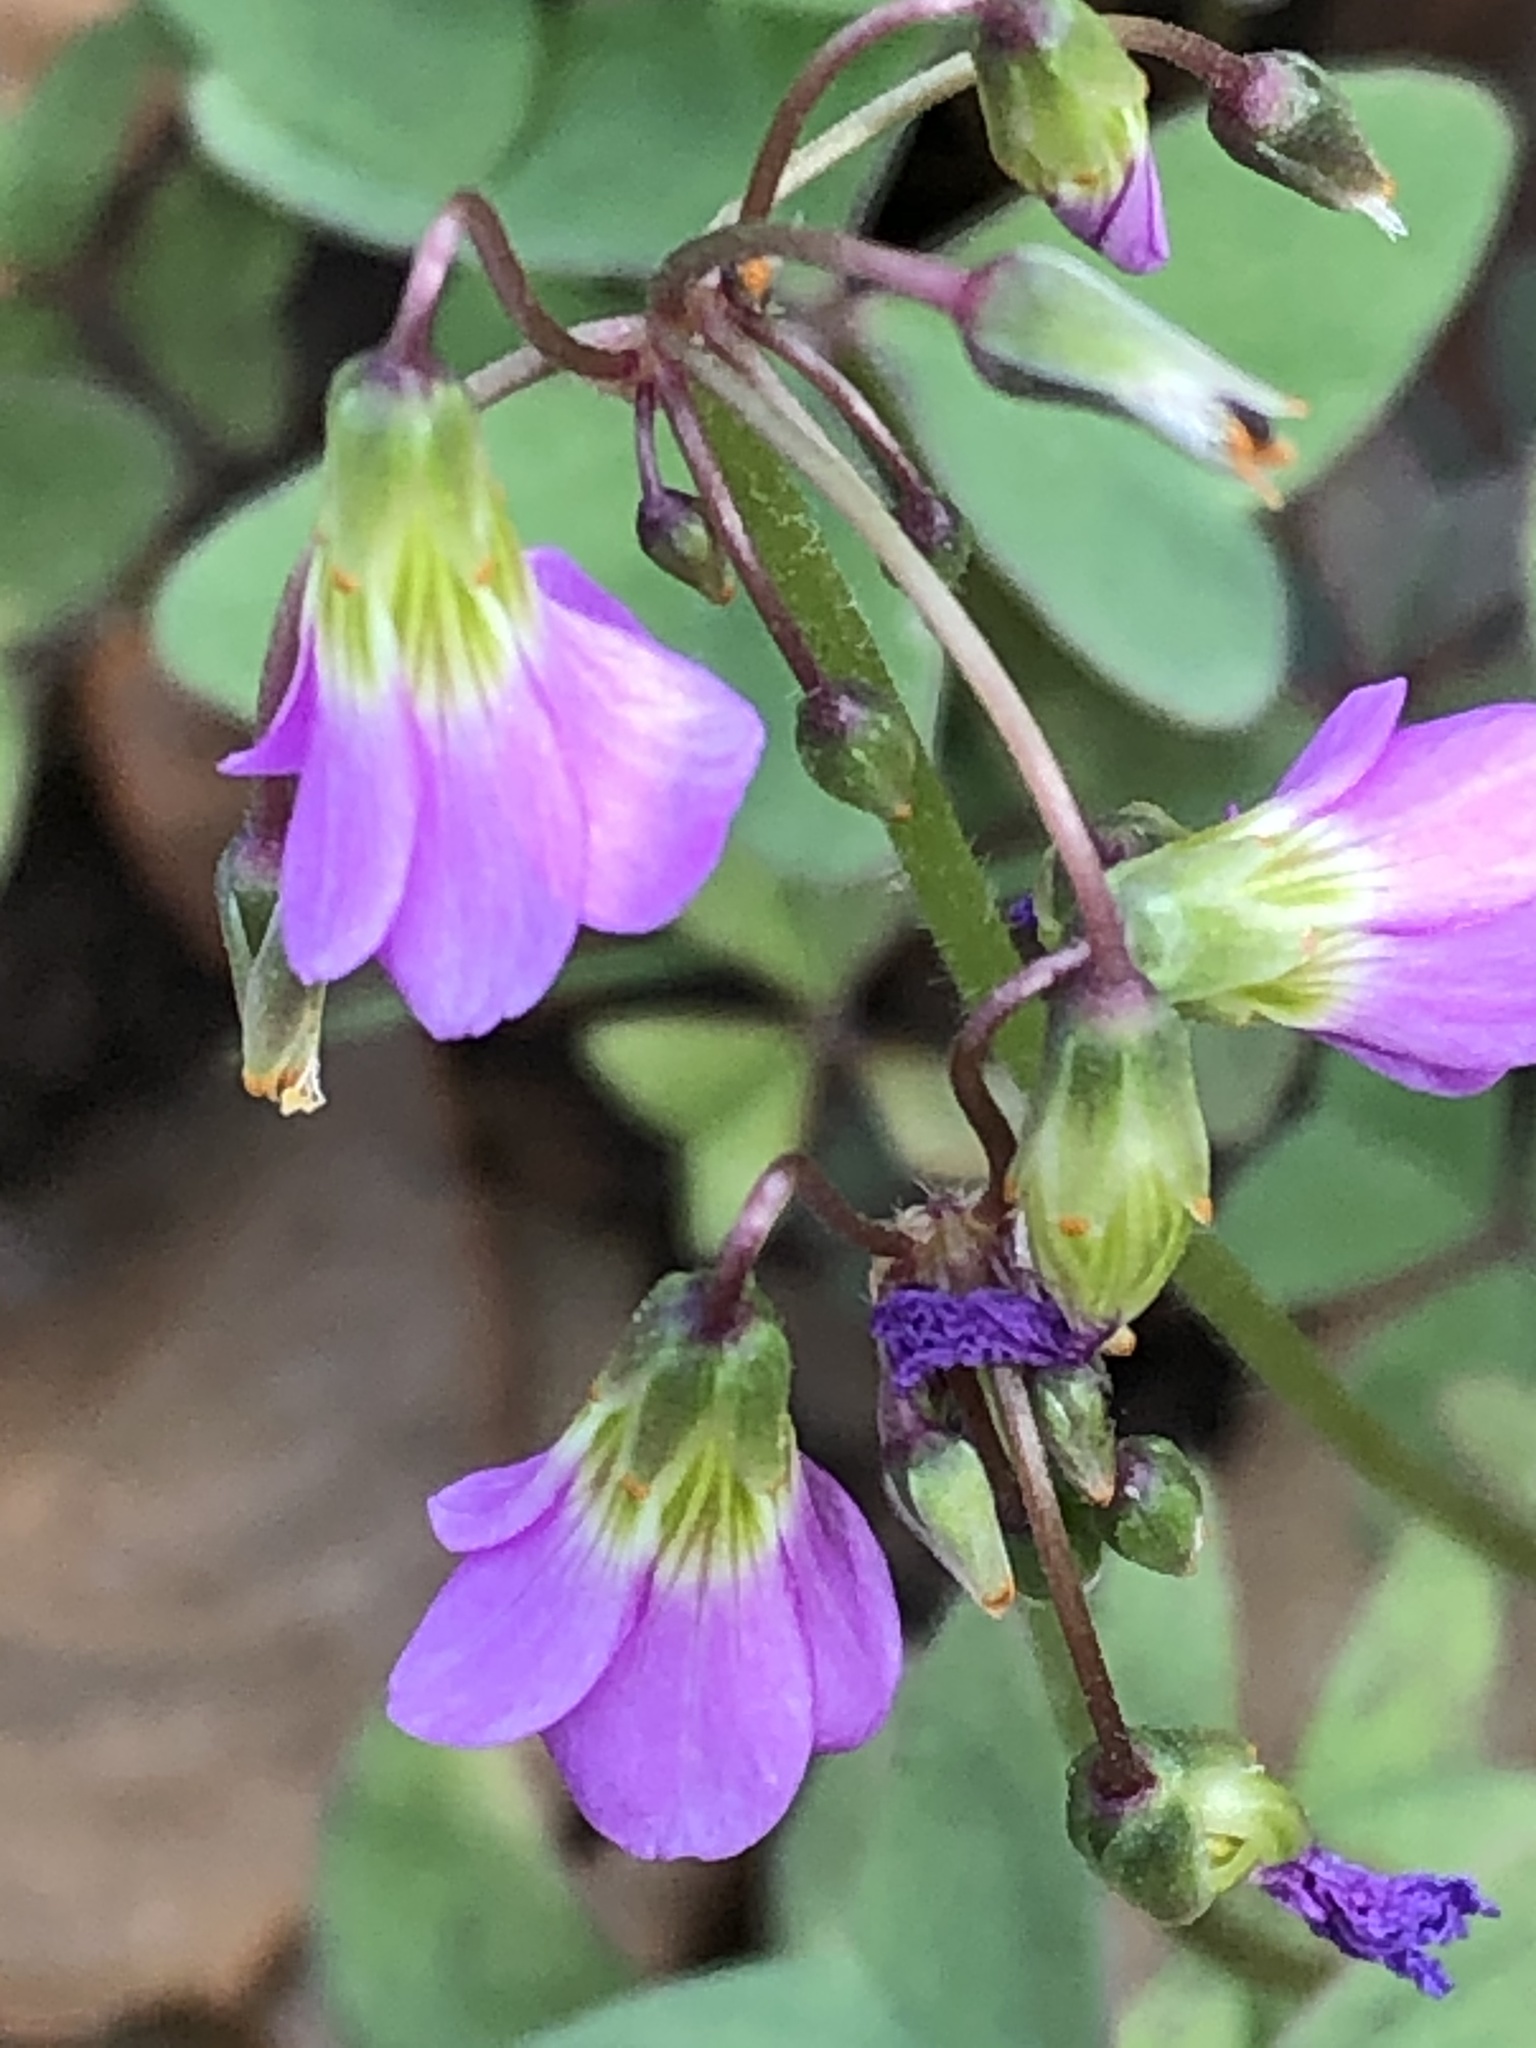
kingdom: Plantae
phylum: Tracheophyta
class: Magnoliopsida
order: Oxalidales
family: Oxalidaceae
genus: Oxalis
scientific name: Oxalis latifolia
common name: Garden pink-sorrel
